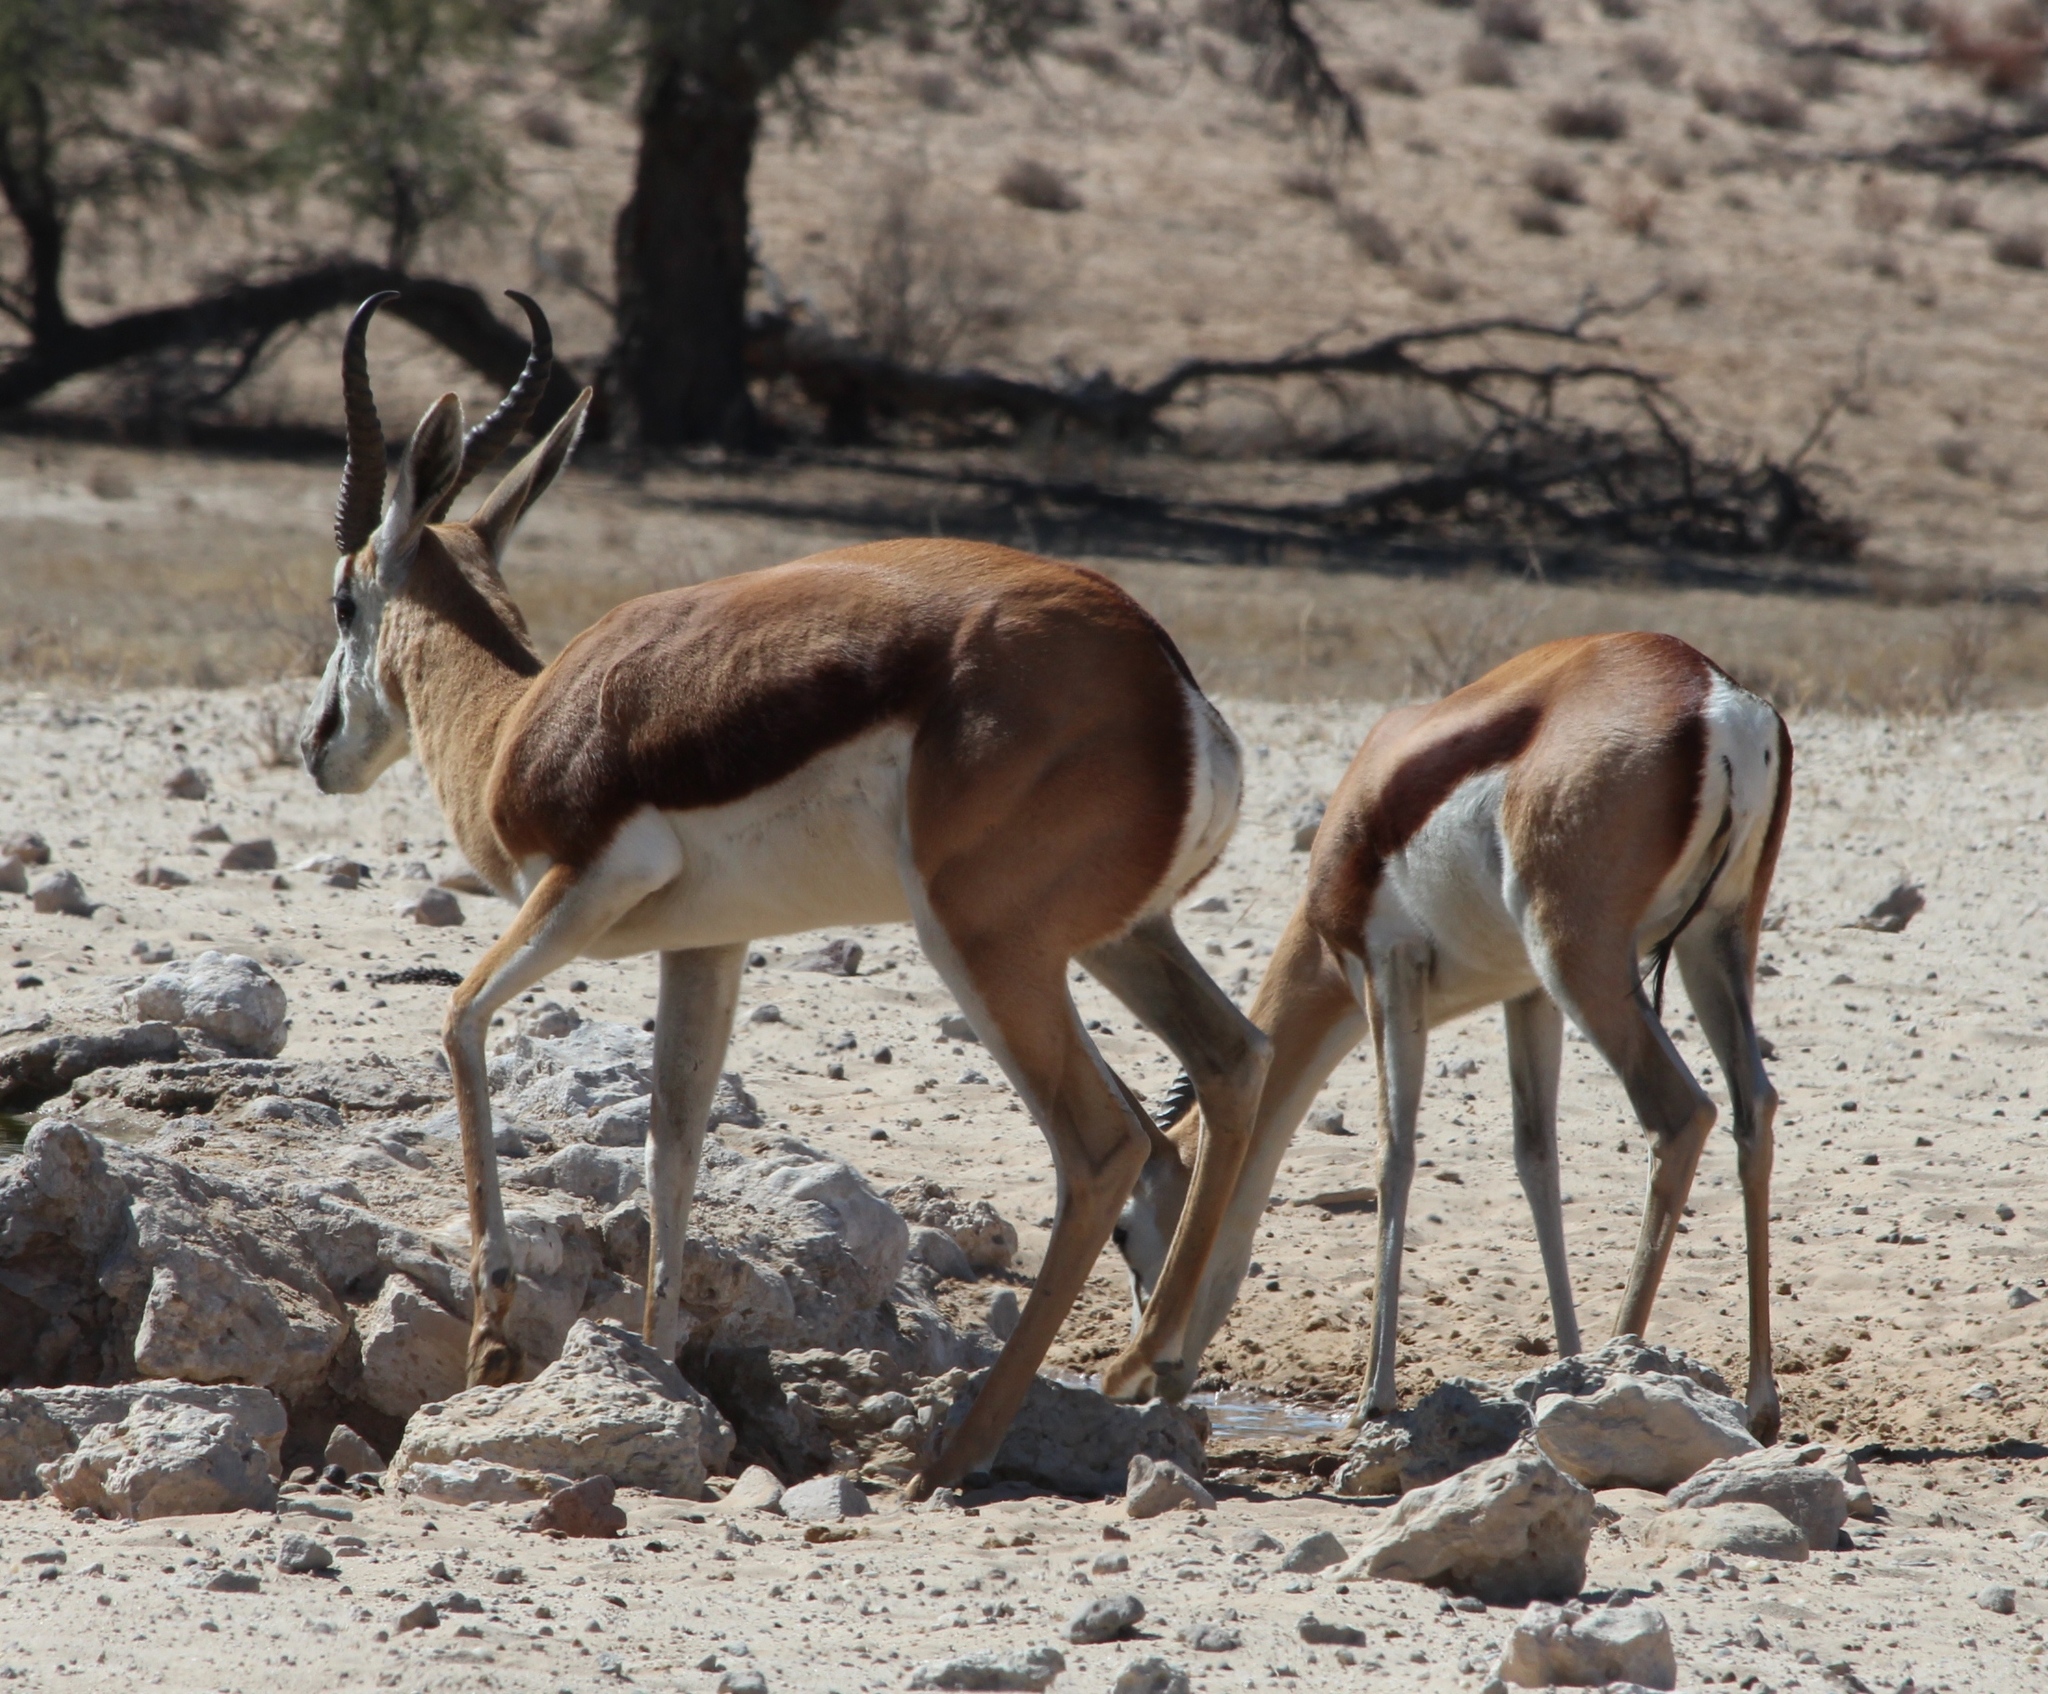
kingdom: Animalia
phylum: Chordata
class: Mammalia
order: Artiodactyla
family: Bovidae
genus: Antidorcas
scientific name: Antidorcas marsupialis
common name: Springbok
